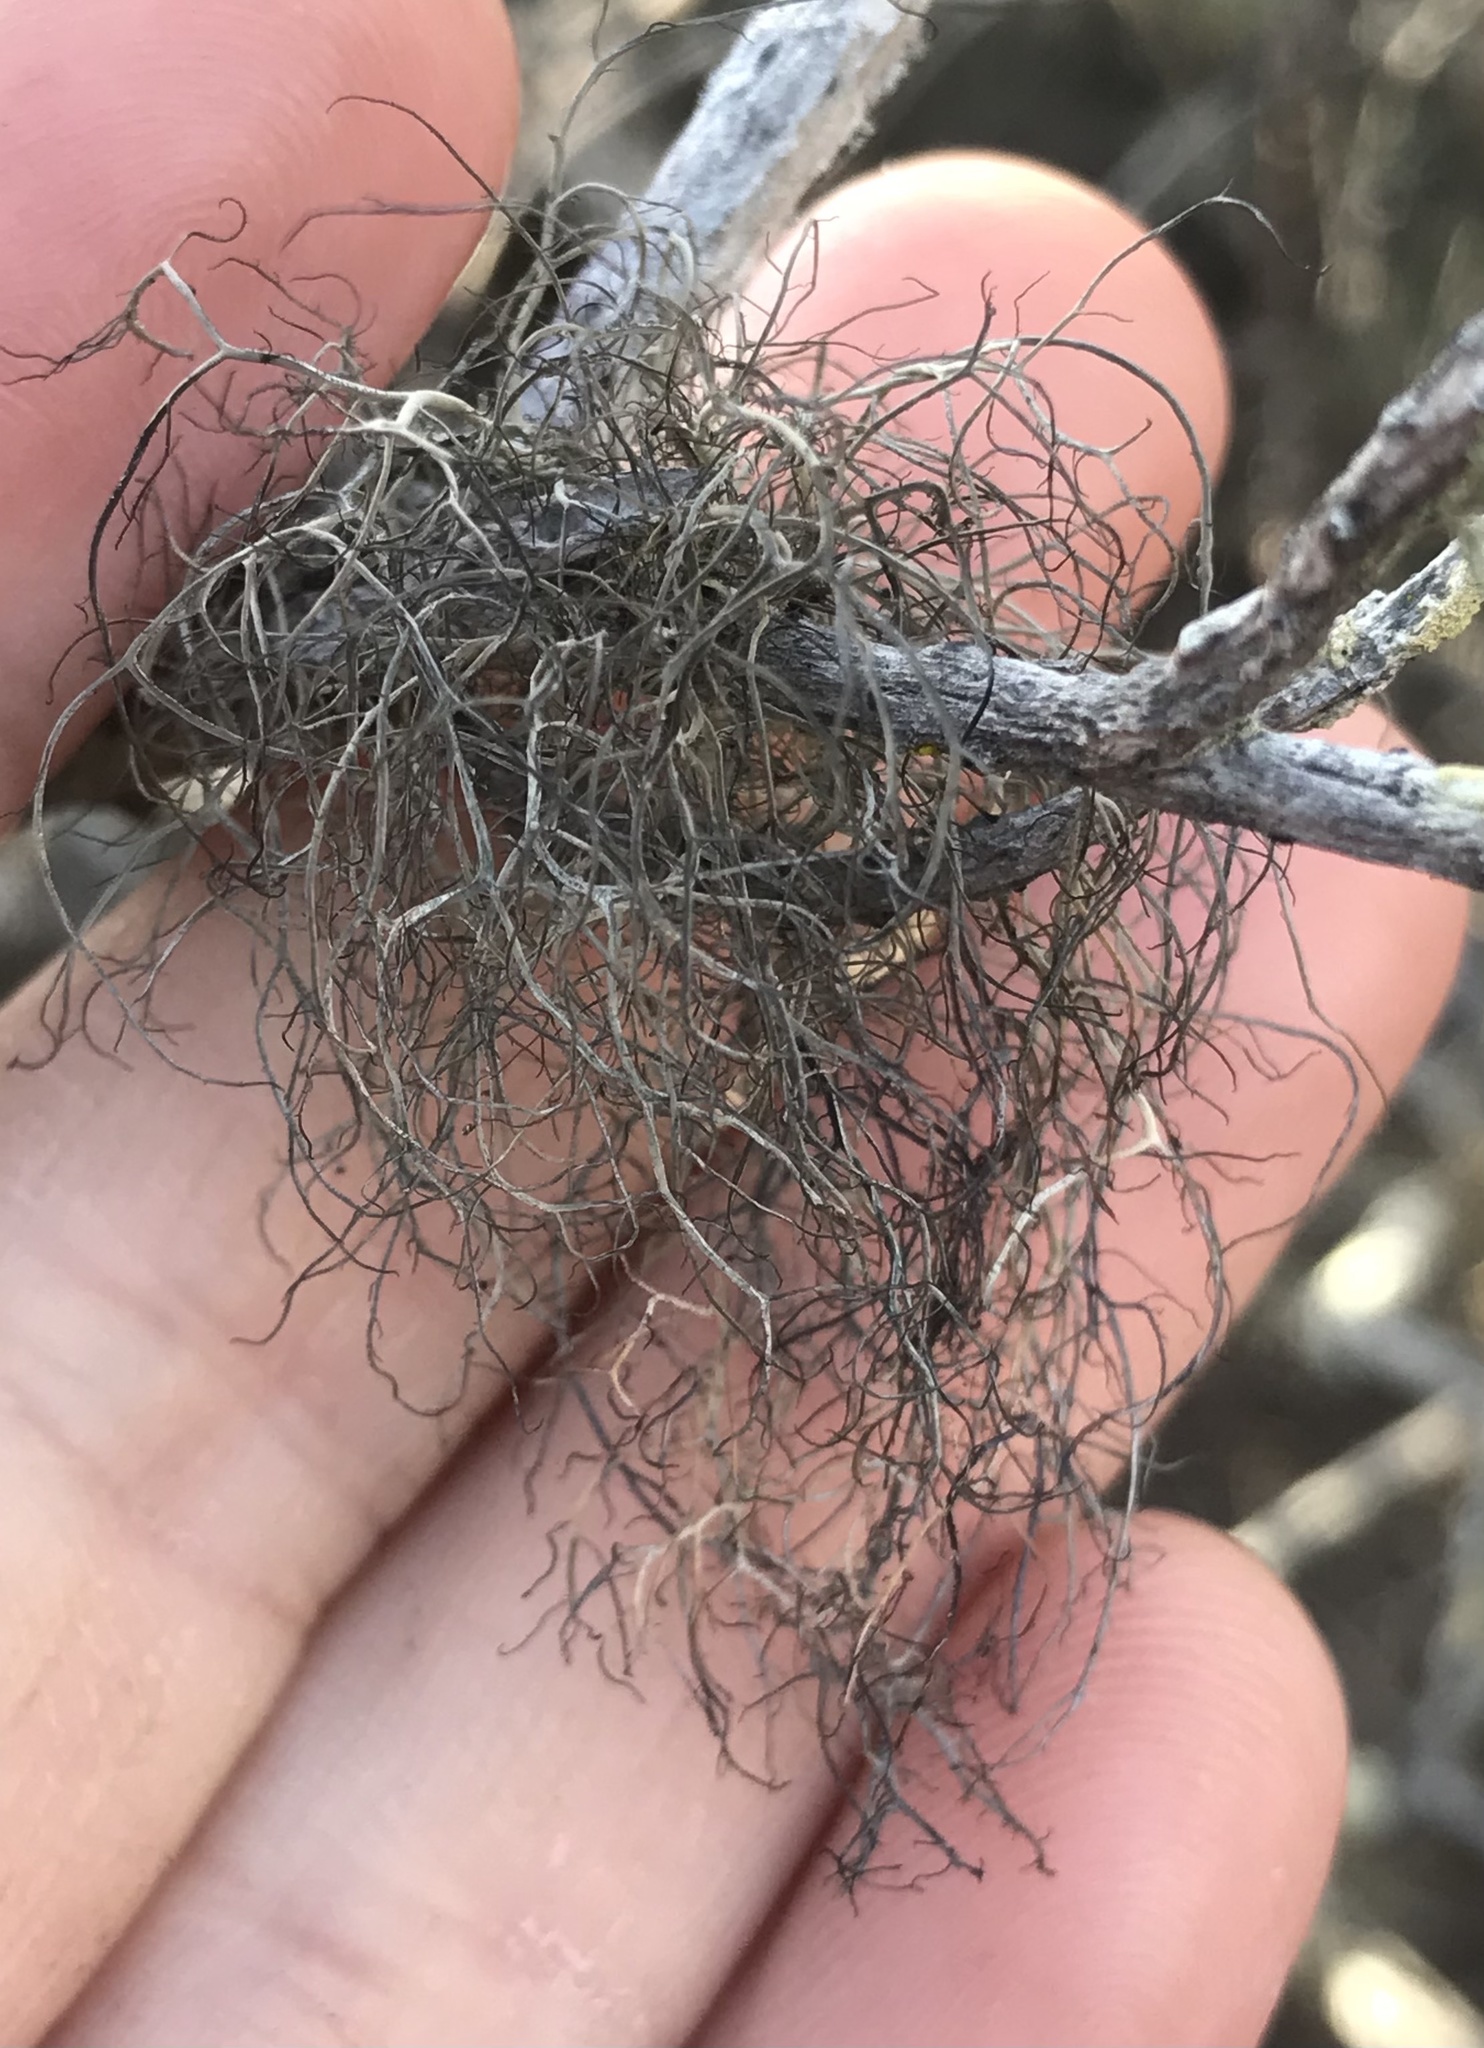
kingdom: Fungi
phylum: Ascomycota
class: Lecanoromycetes
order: Lecanorales
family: Parmeliaceae
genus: Sulcaria
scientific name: Sulcaria isidiifera
